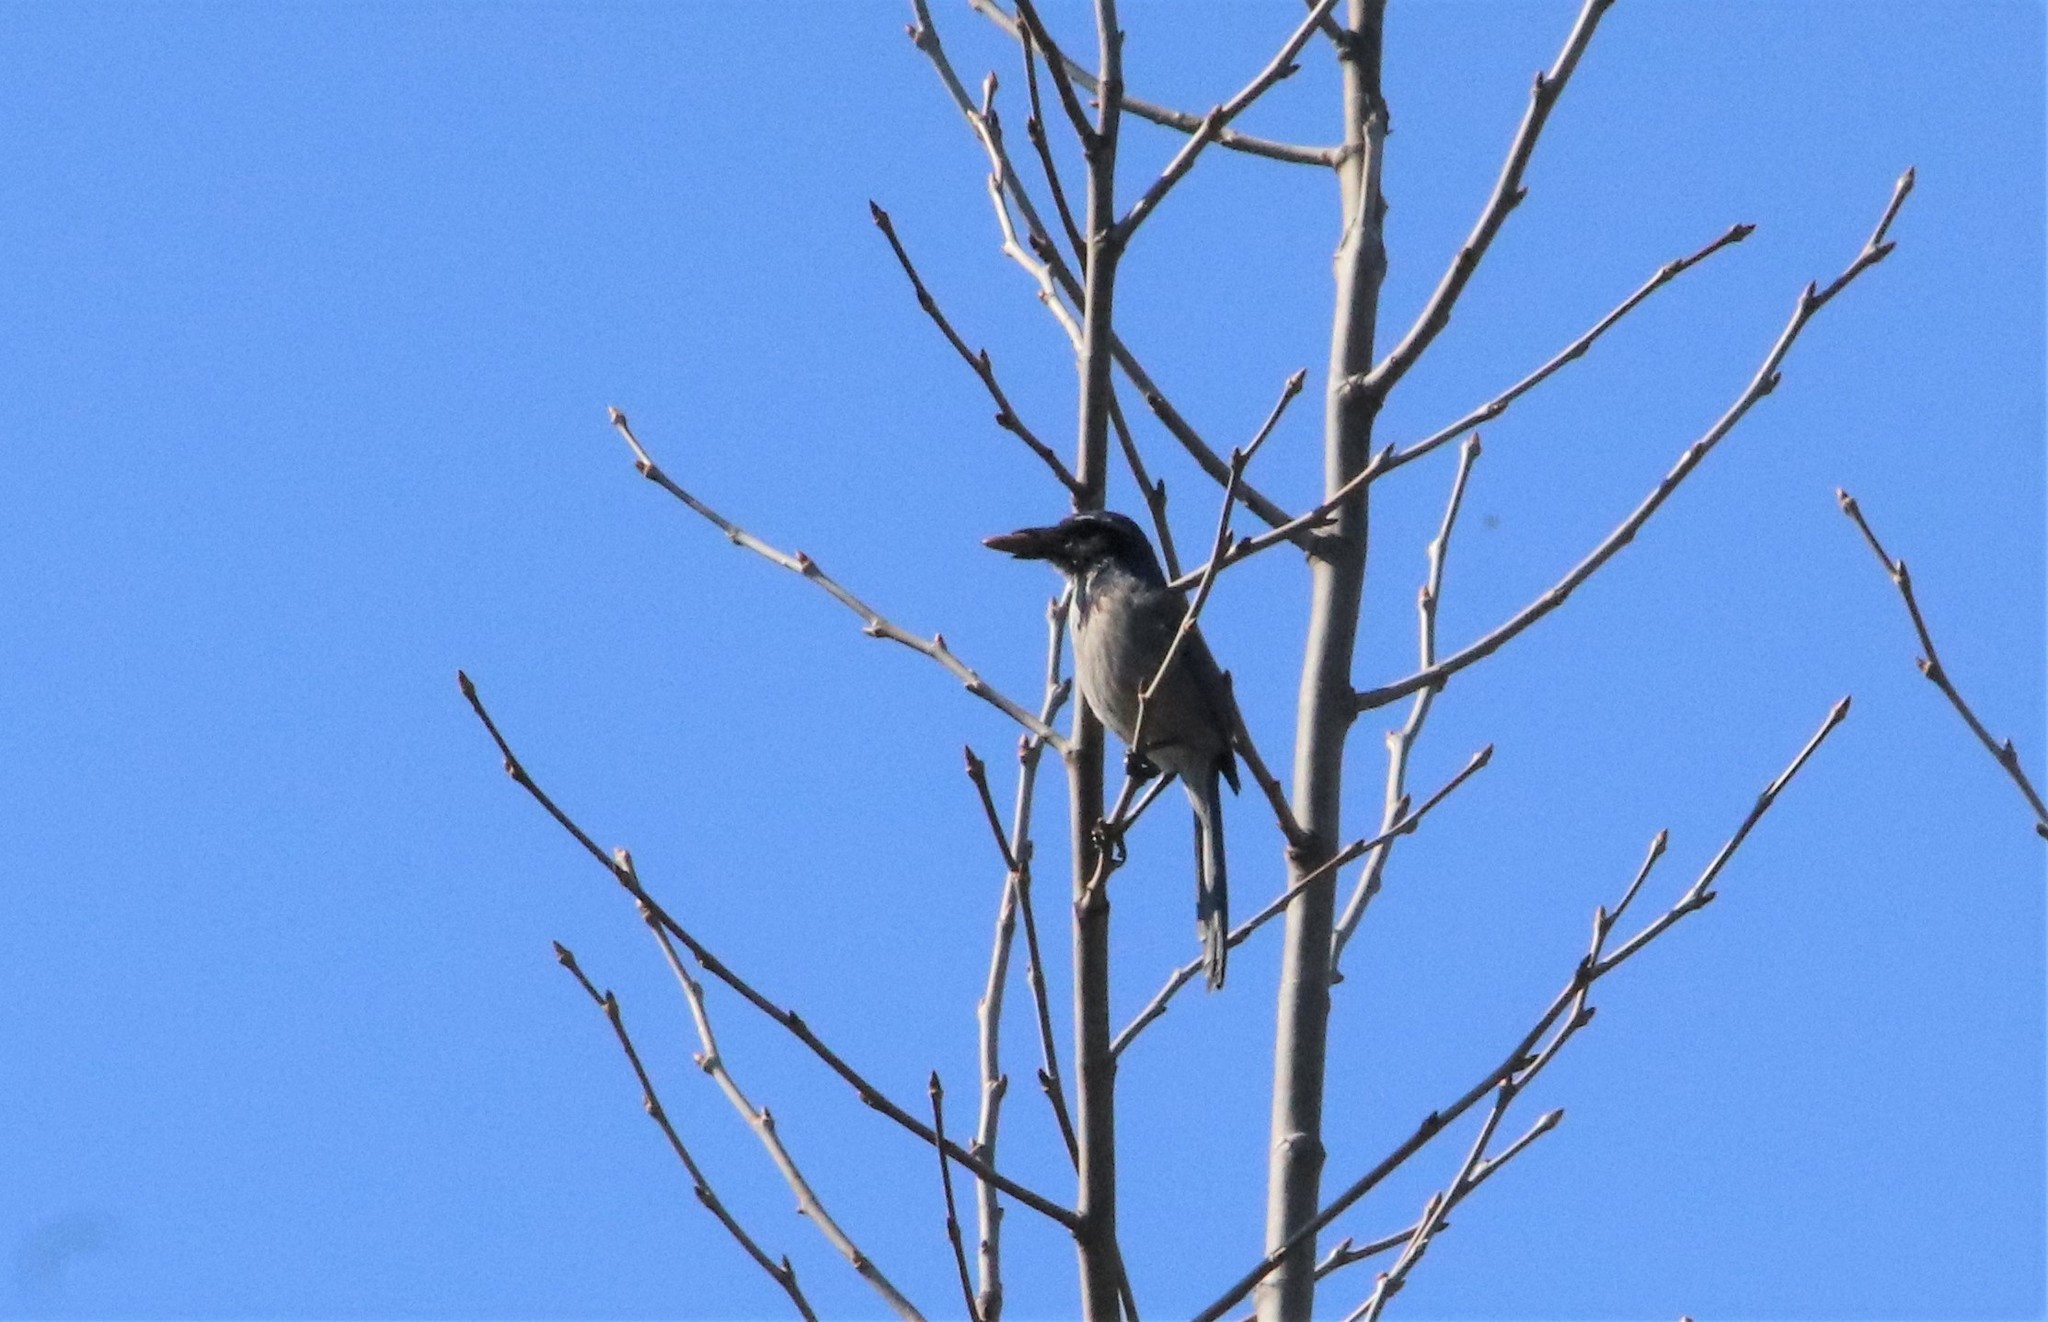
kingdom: Animalia
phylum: Chordata
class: Aves
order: Passeriformes
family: Corvidae
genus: Aphelocoma
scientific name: Aphelocoma californica
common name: California scrub-jay
